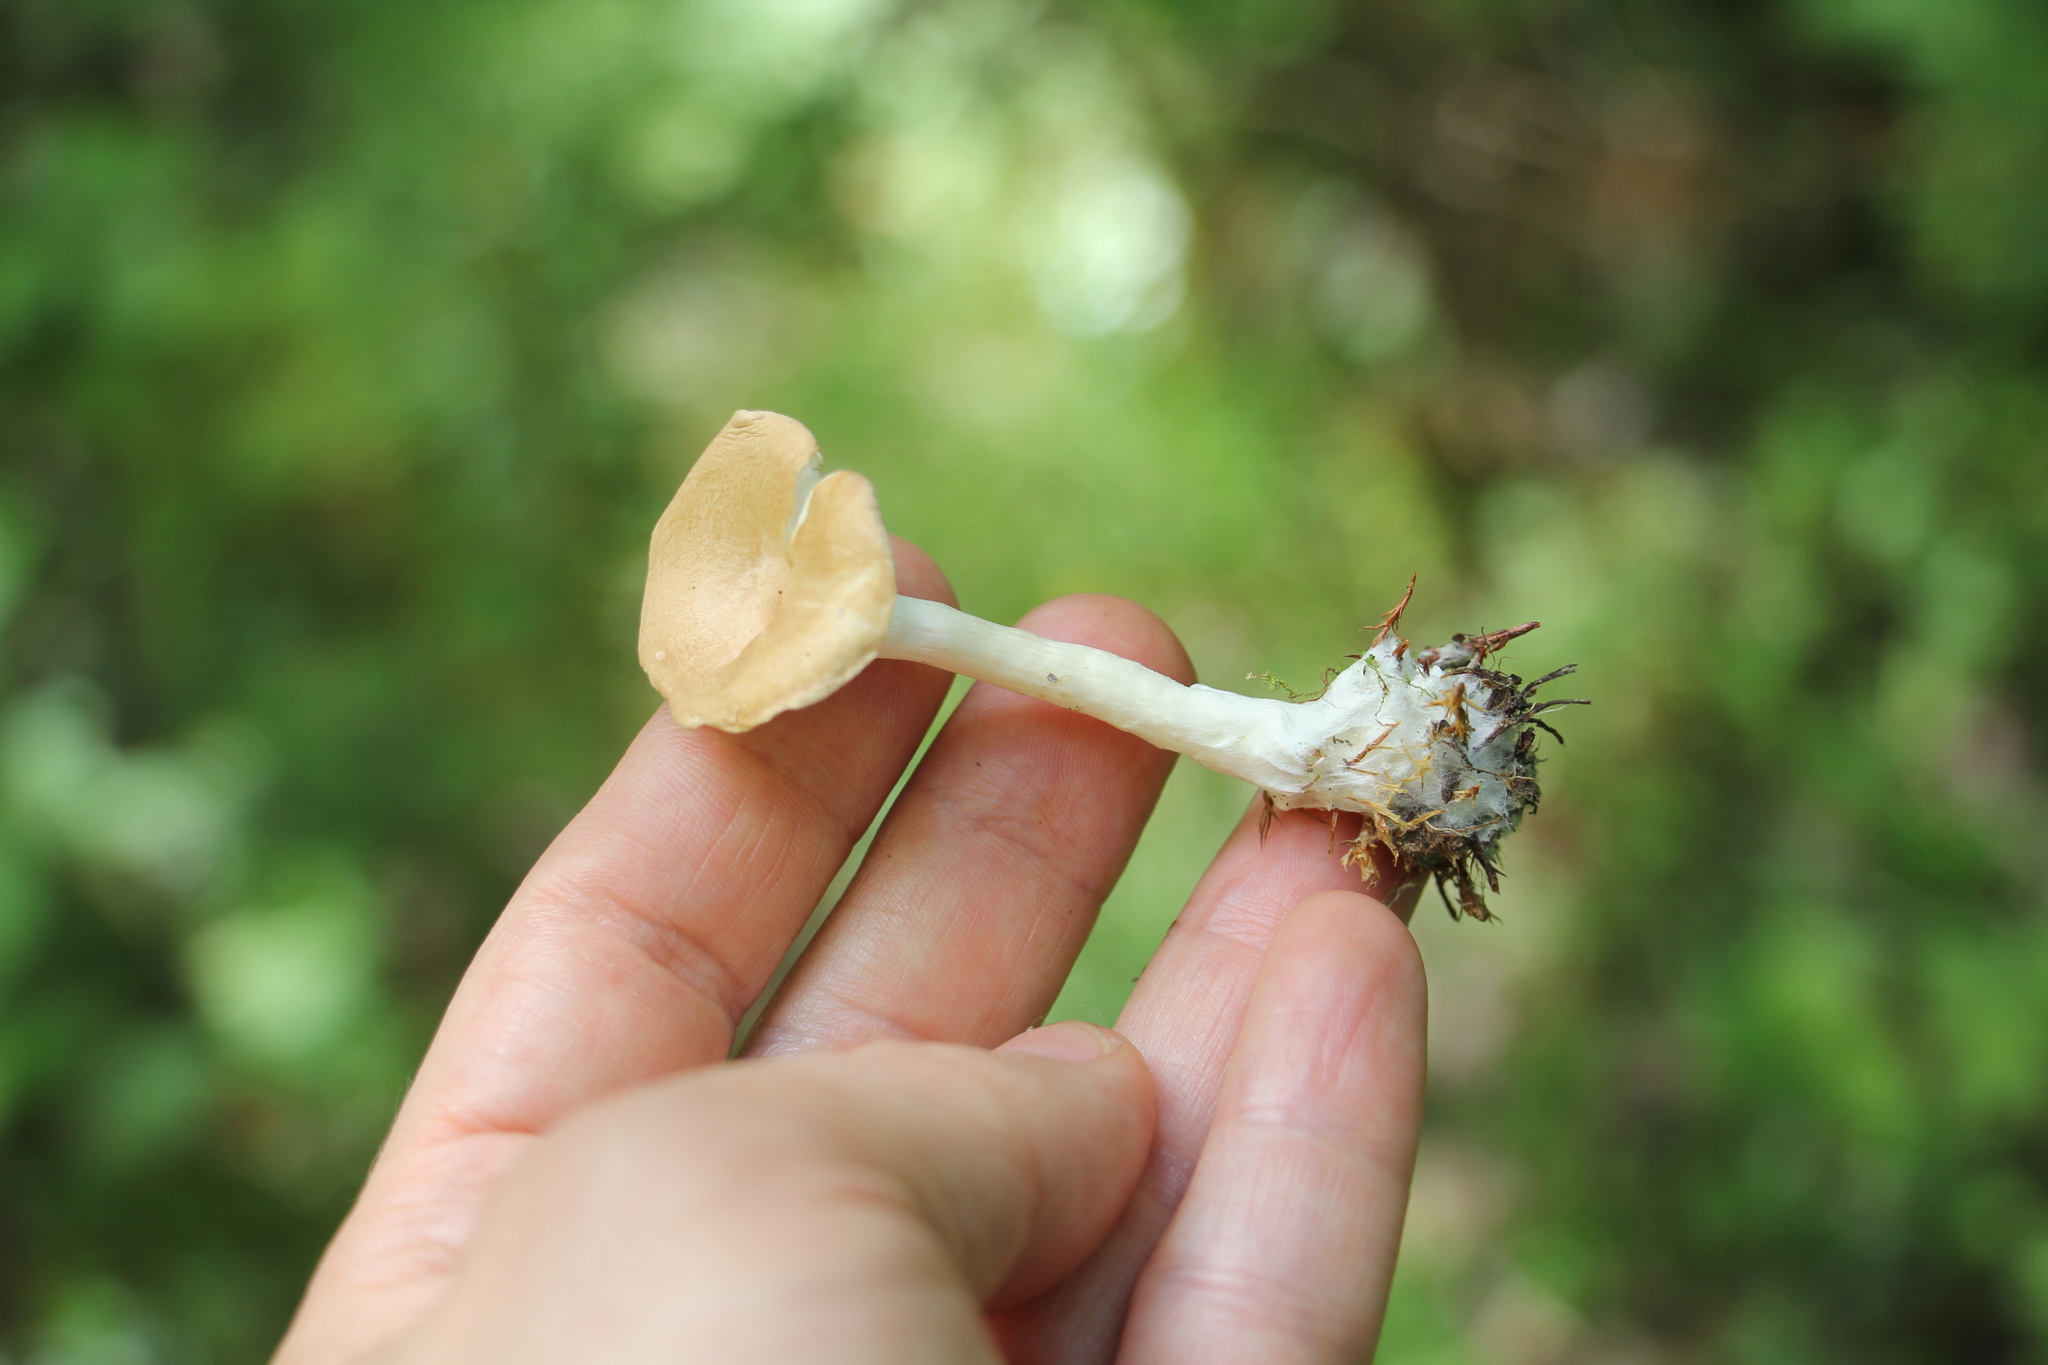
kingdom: Fungi
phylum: Basidiomycota
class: Agaricomycetes
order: Agaricales
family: Tricholomataceae
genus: Infundibulicybe
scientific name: Infundibulicybe gibba
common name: Common funnel
